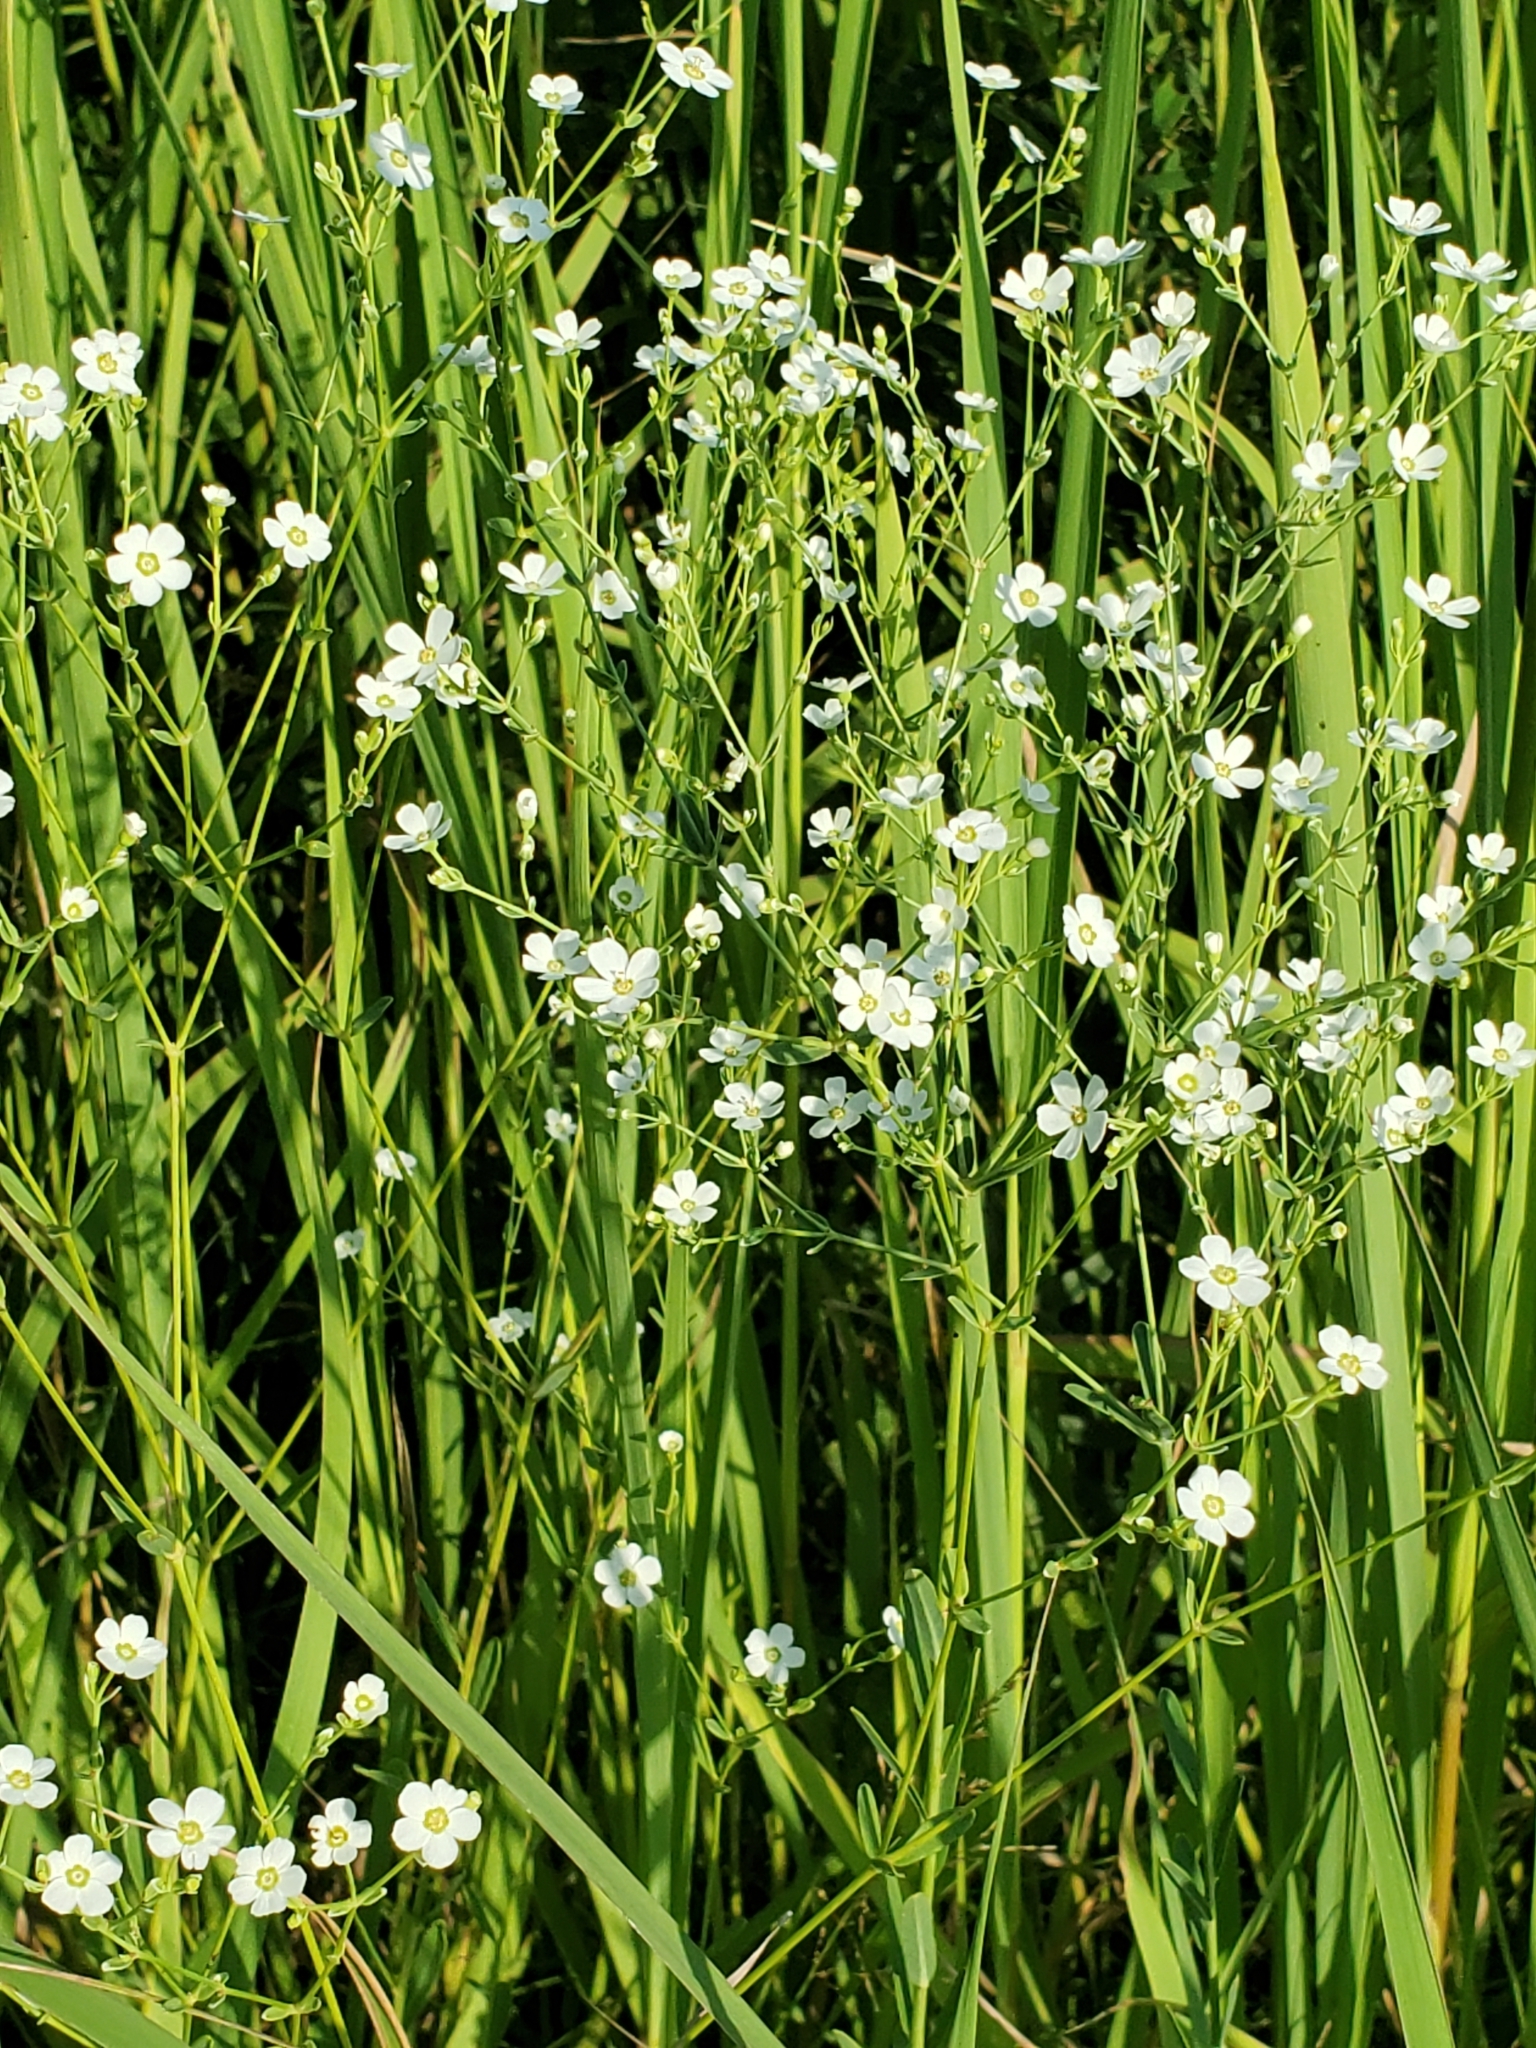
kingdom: Plantae
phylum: Tracheophyta
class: Magnoliopsida
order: Malpighiales
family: Euphorbiaceae
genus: Euphorbia
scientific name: Euphorbia corollata
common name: Flowering spurge
